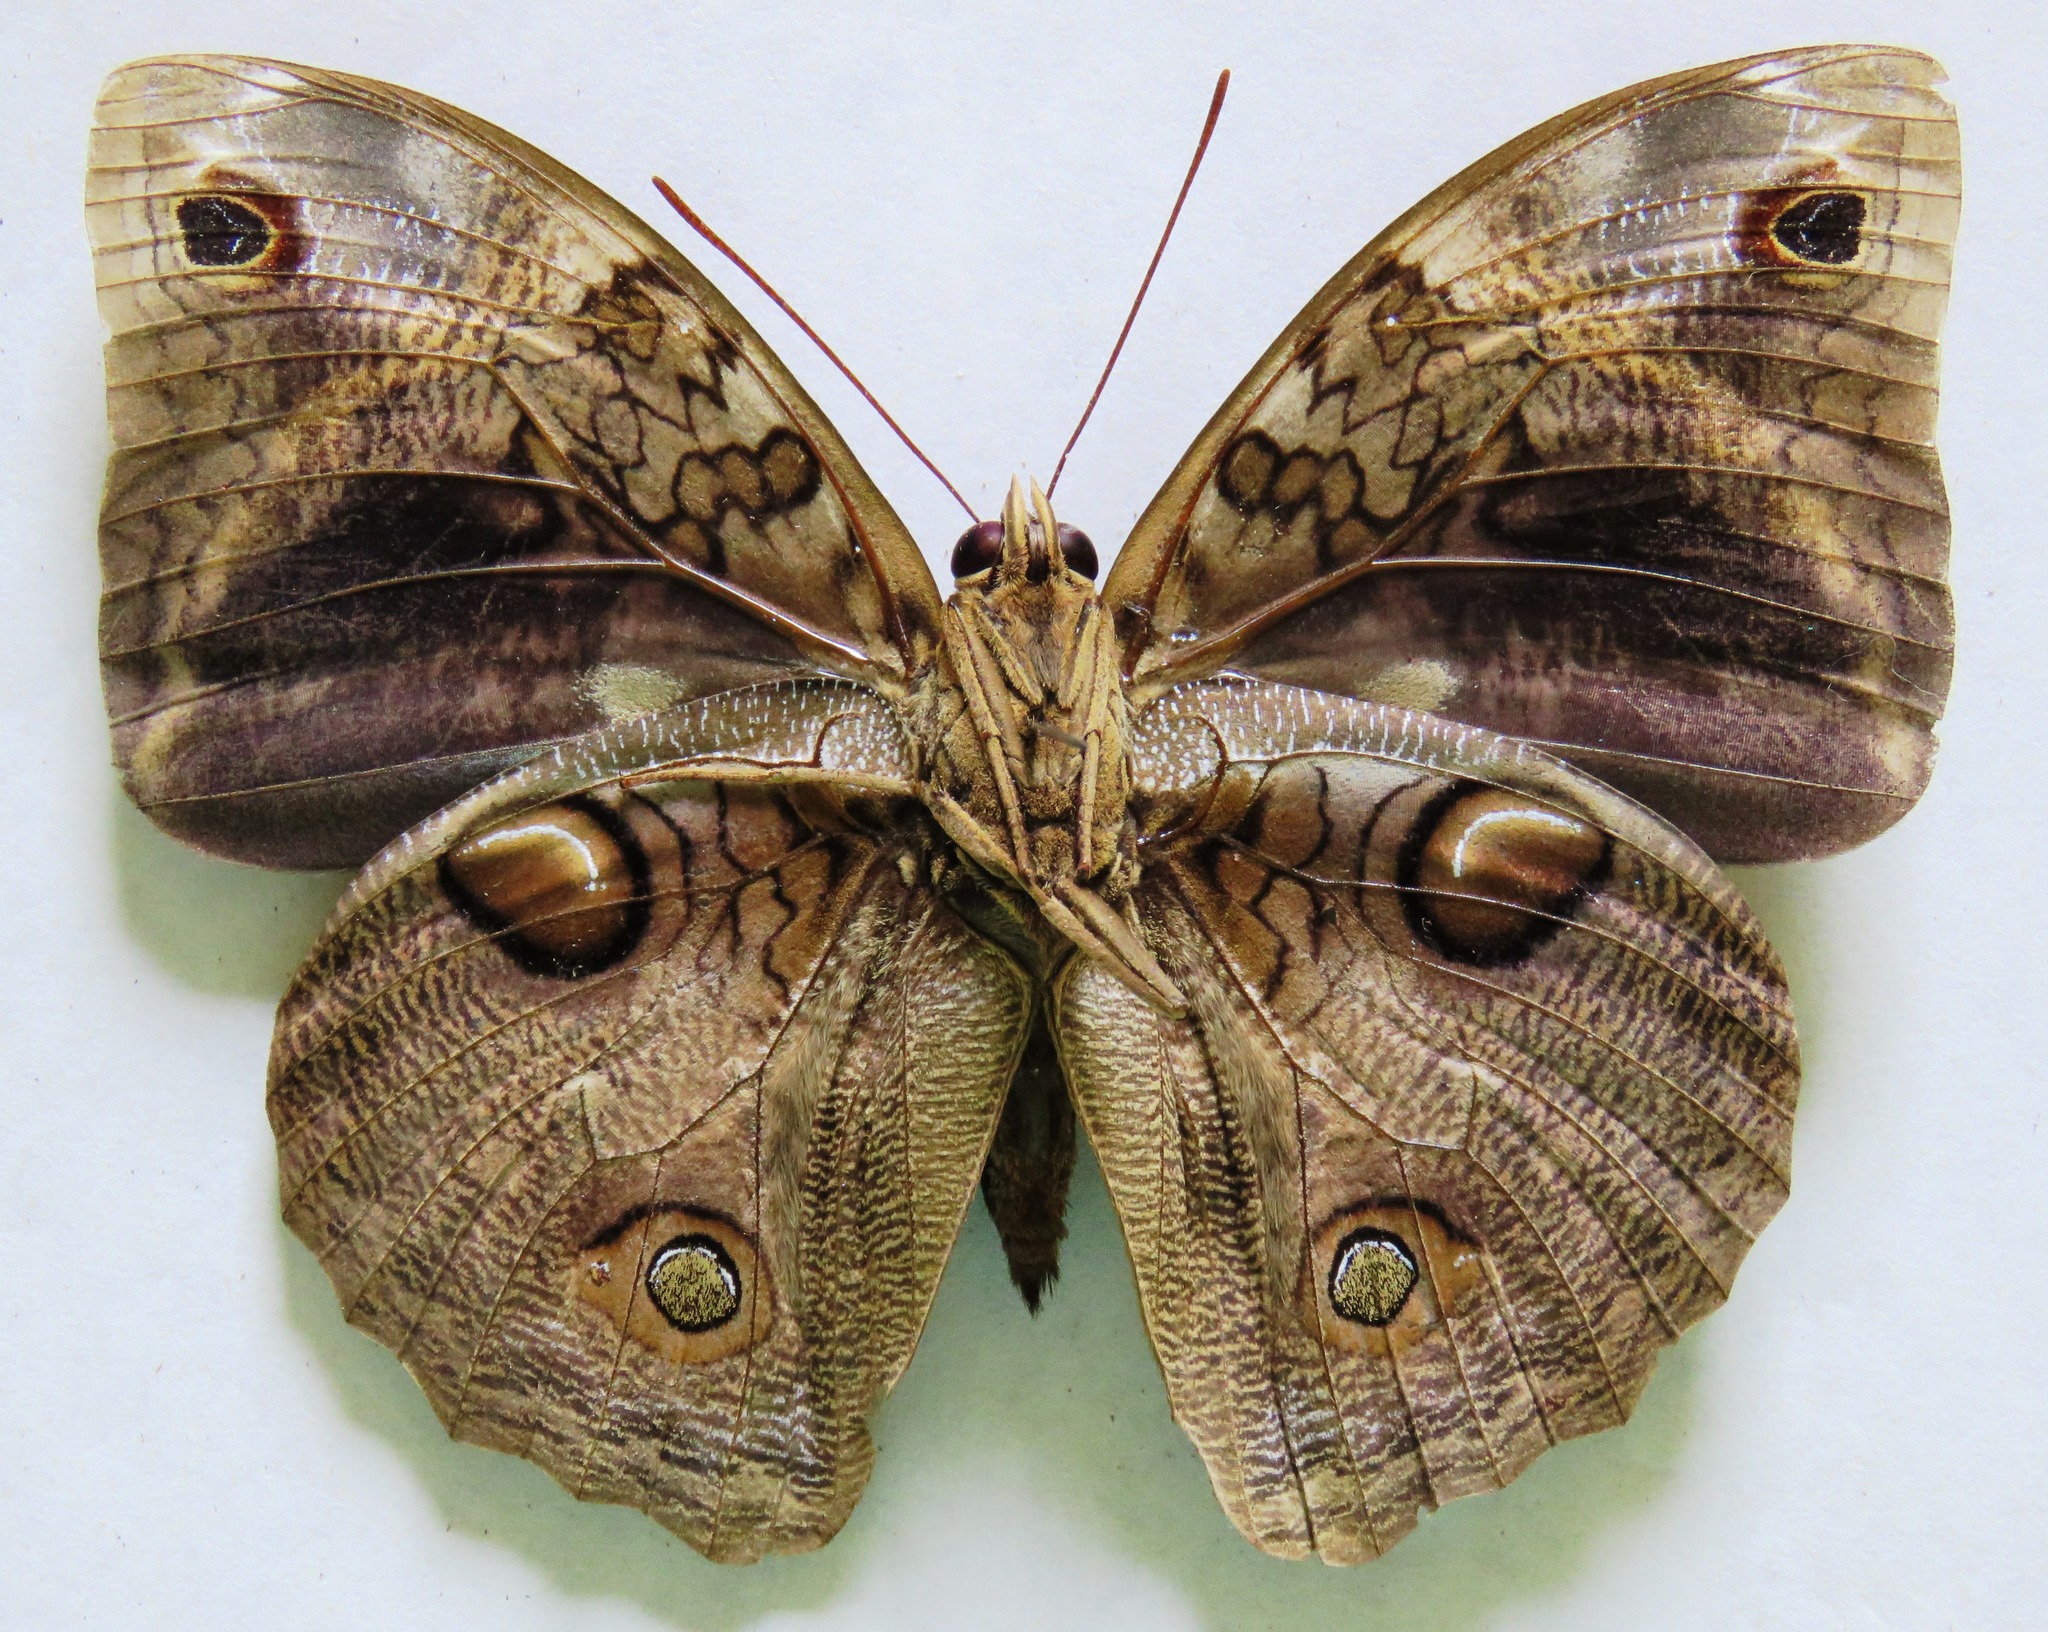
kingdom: Animalia
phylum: Arthropoda
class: Insecta
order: Lepidoptera
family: Nymphalidae
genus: Opsiphanes
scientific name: Opsiphanes cassiae
